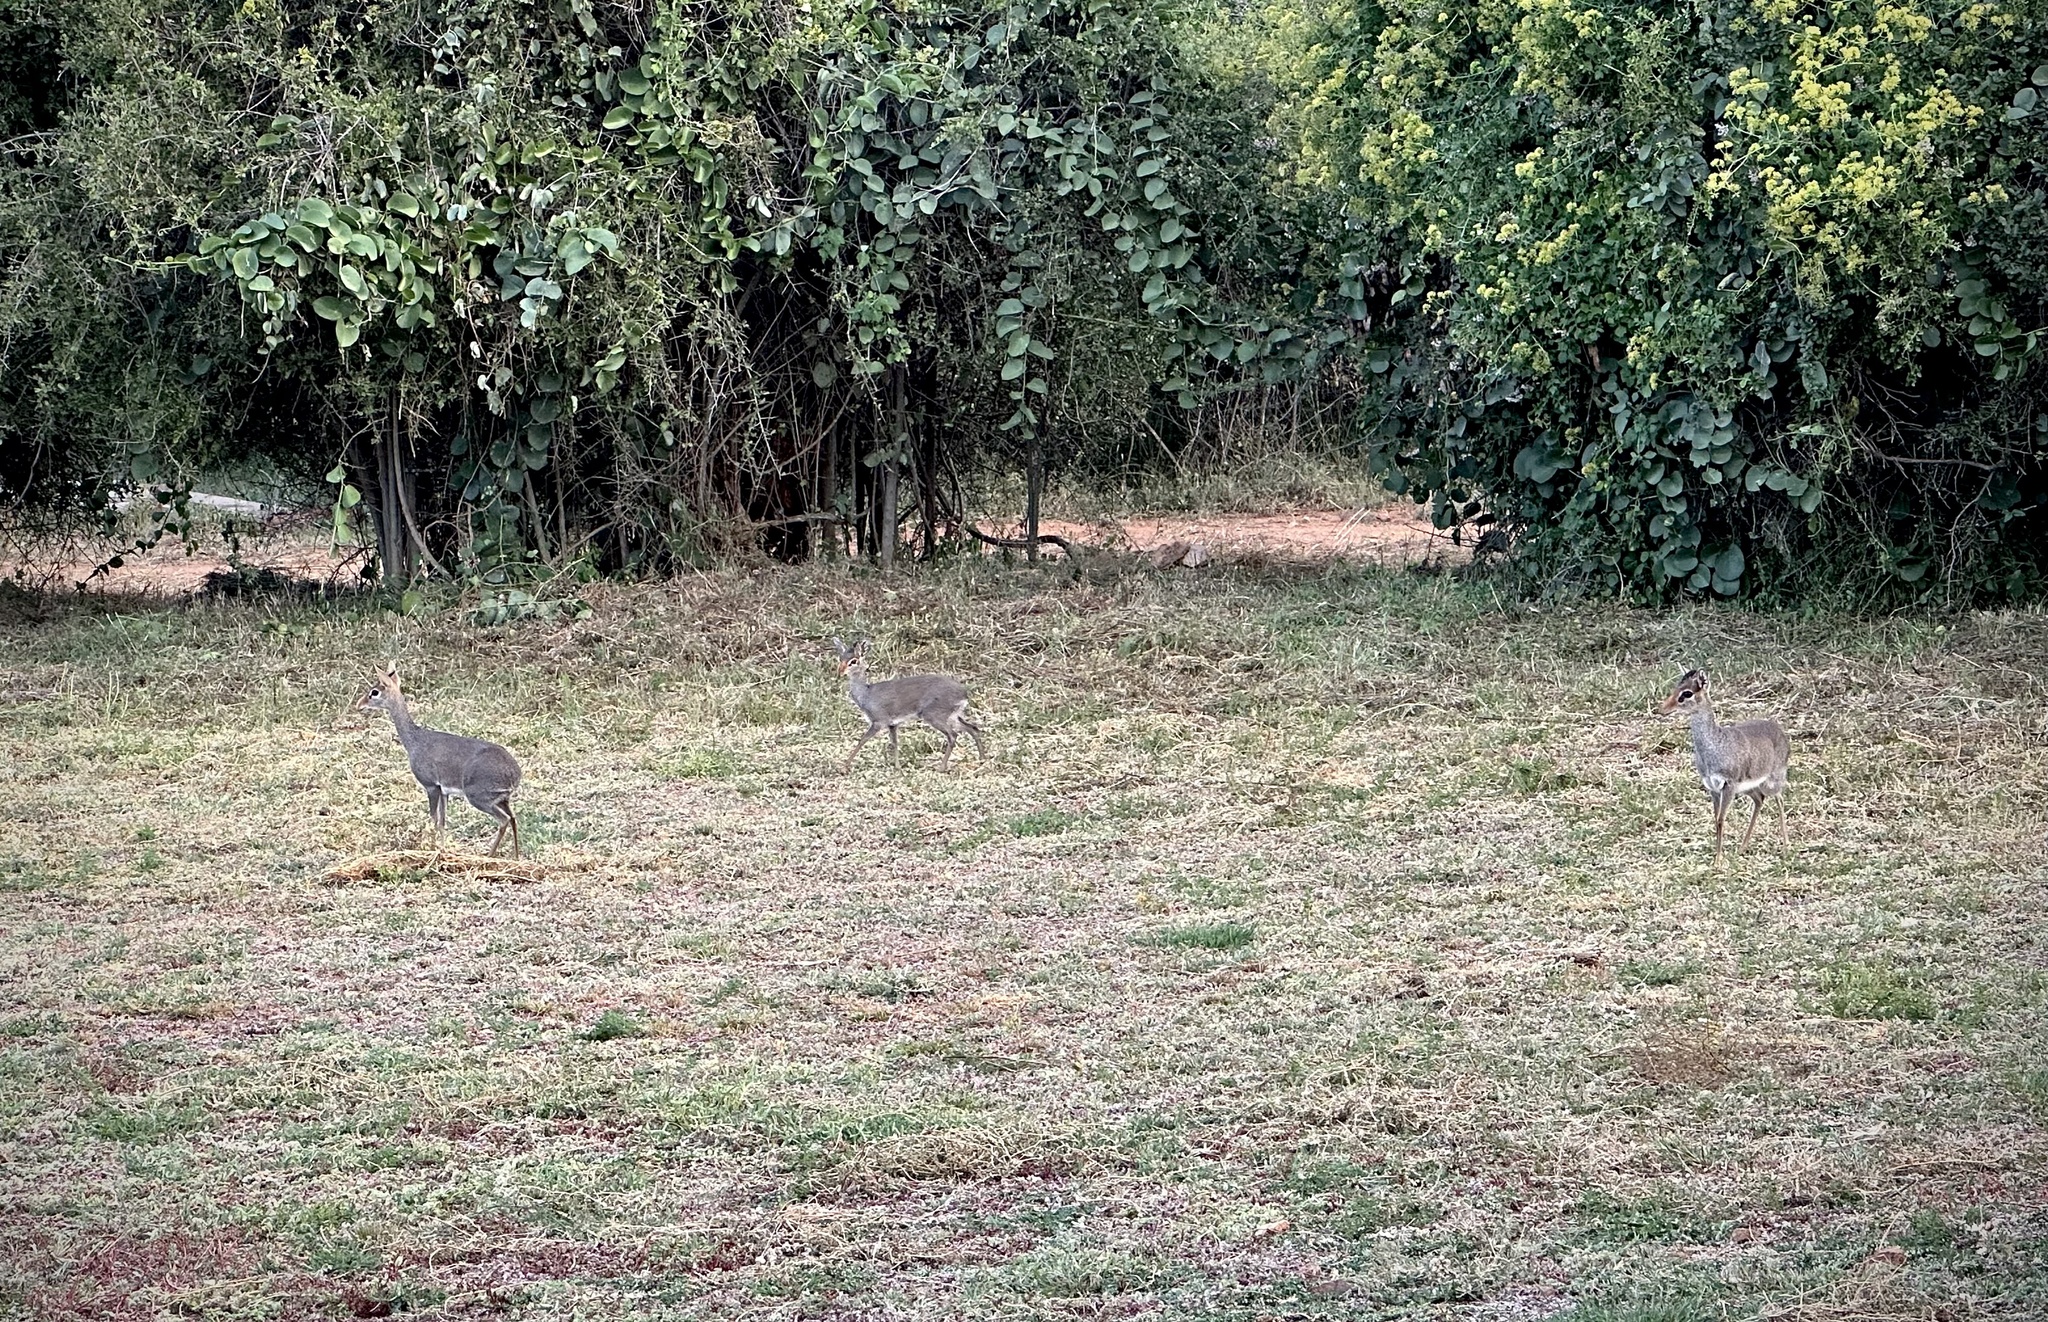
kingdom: Animalia
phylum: Chordata
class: Mammalia
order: Artiodactyla
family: Bovidae
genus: Madoqua
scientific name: Madoqua guentheri
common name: Günther's dikdik
